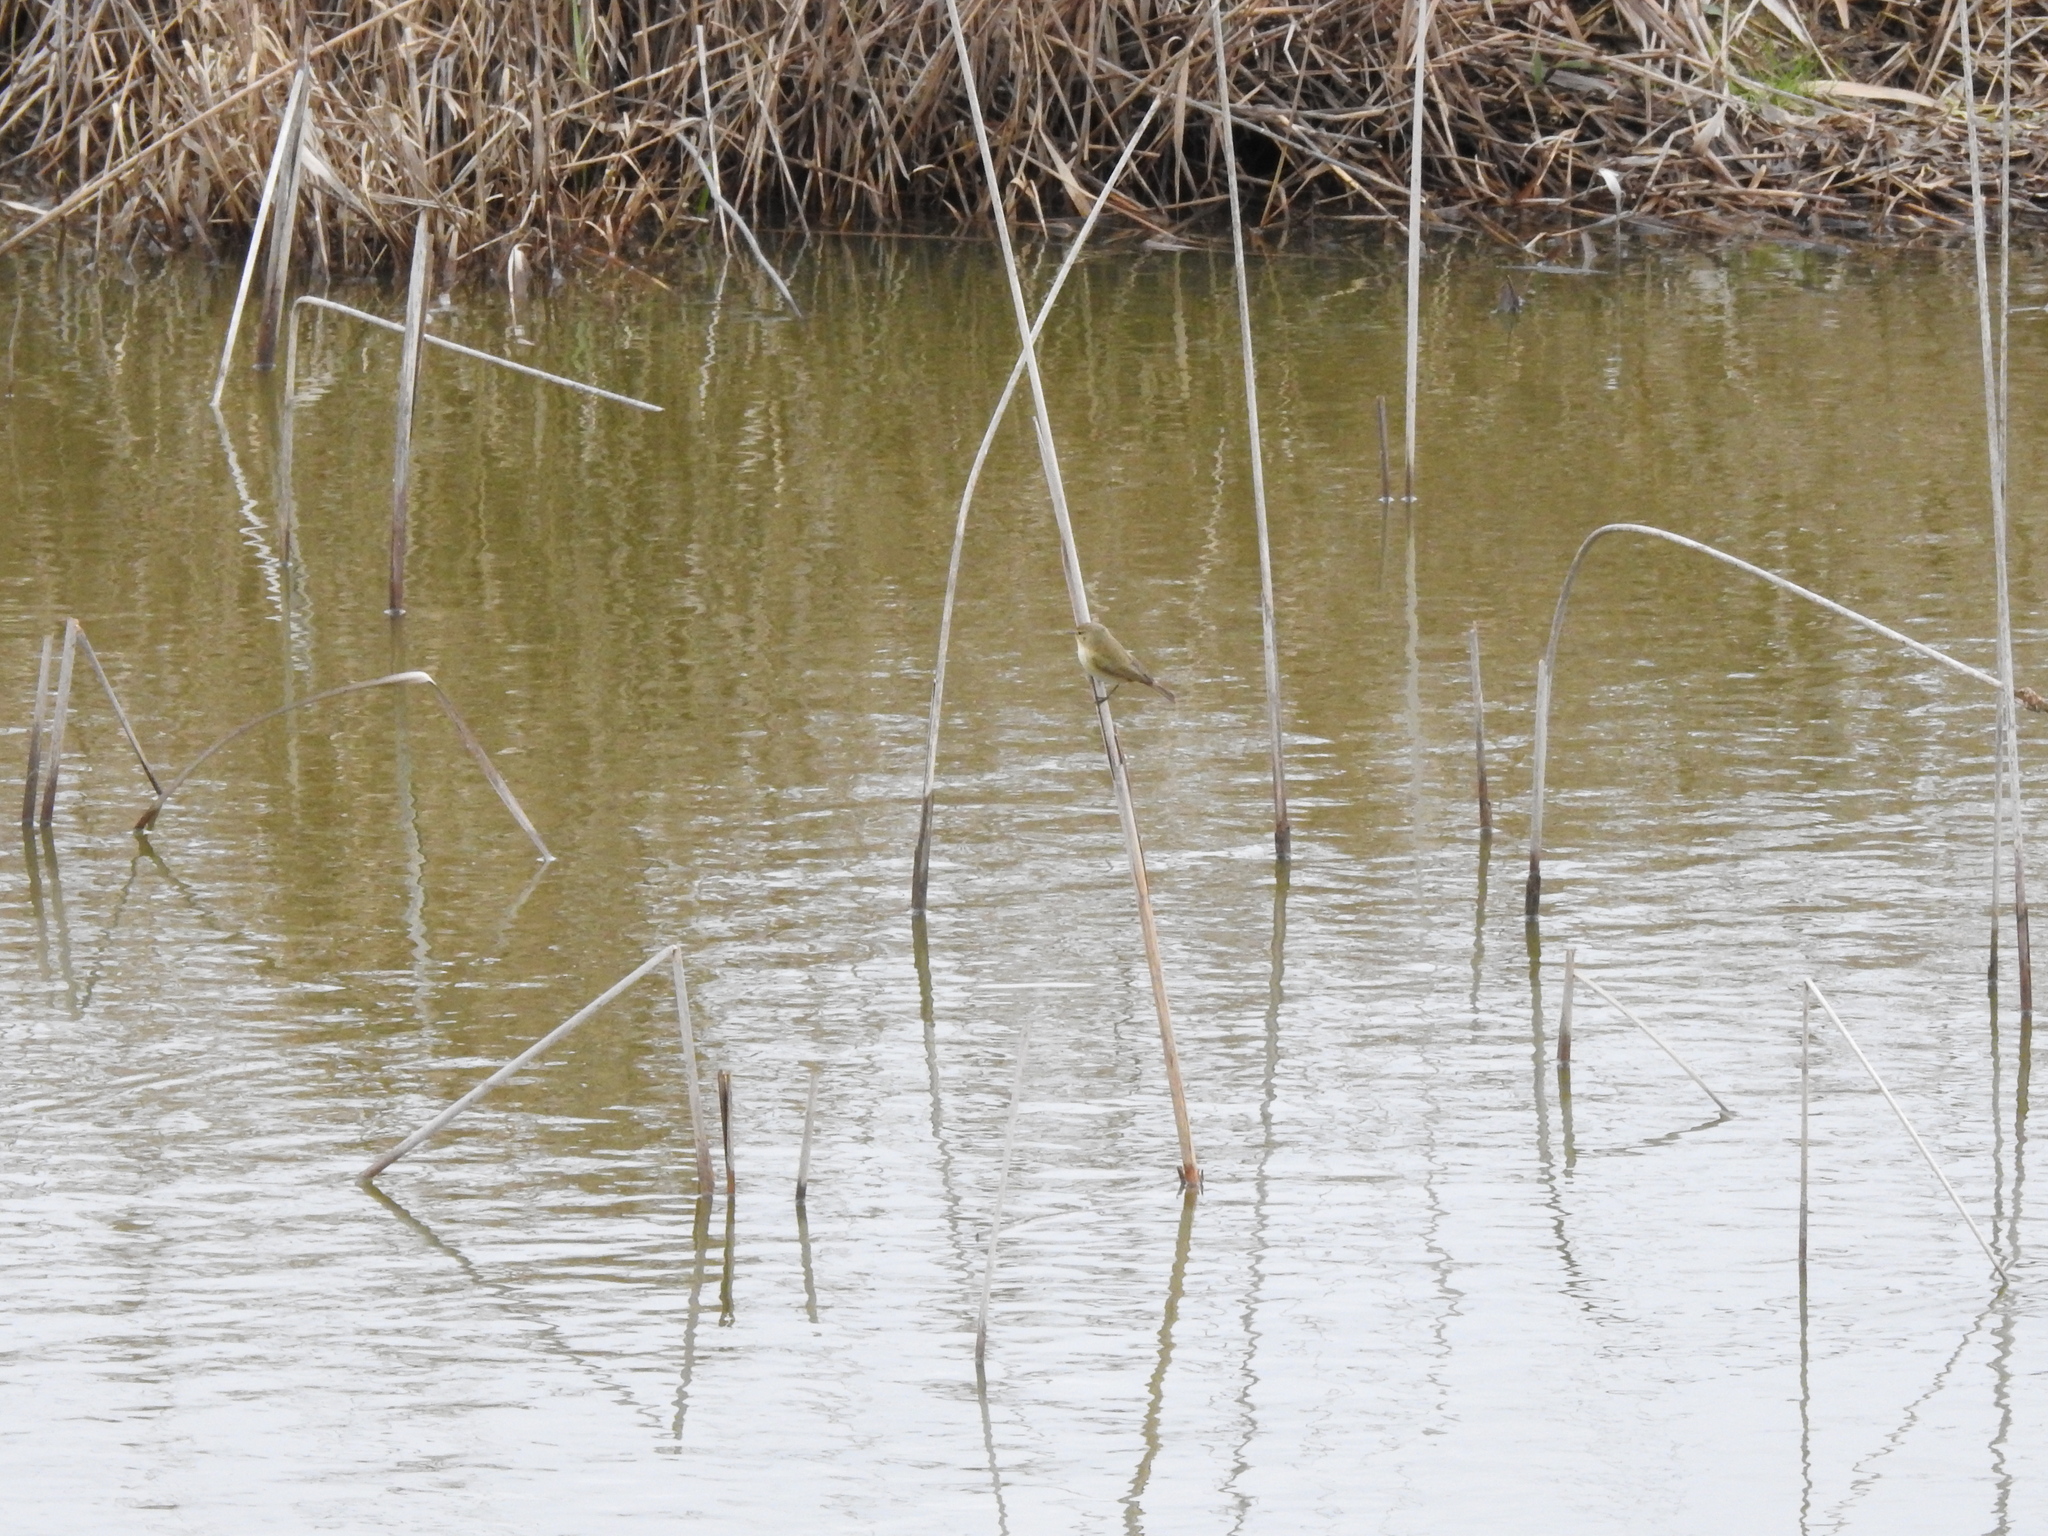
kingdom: Animalia
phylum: Chordata
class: Aves
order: Passeriformes
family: Phylloscopidae
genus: Phylloscopus
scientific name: Phylloscopus collybita
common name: Common chiffchaff
